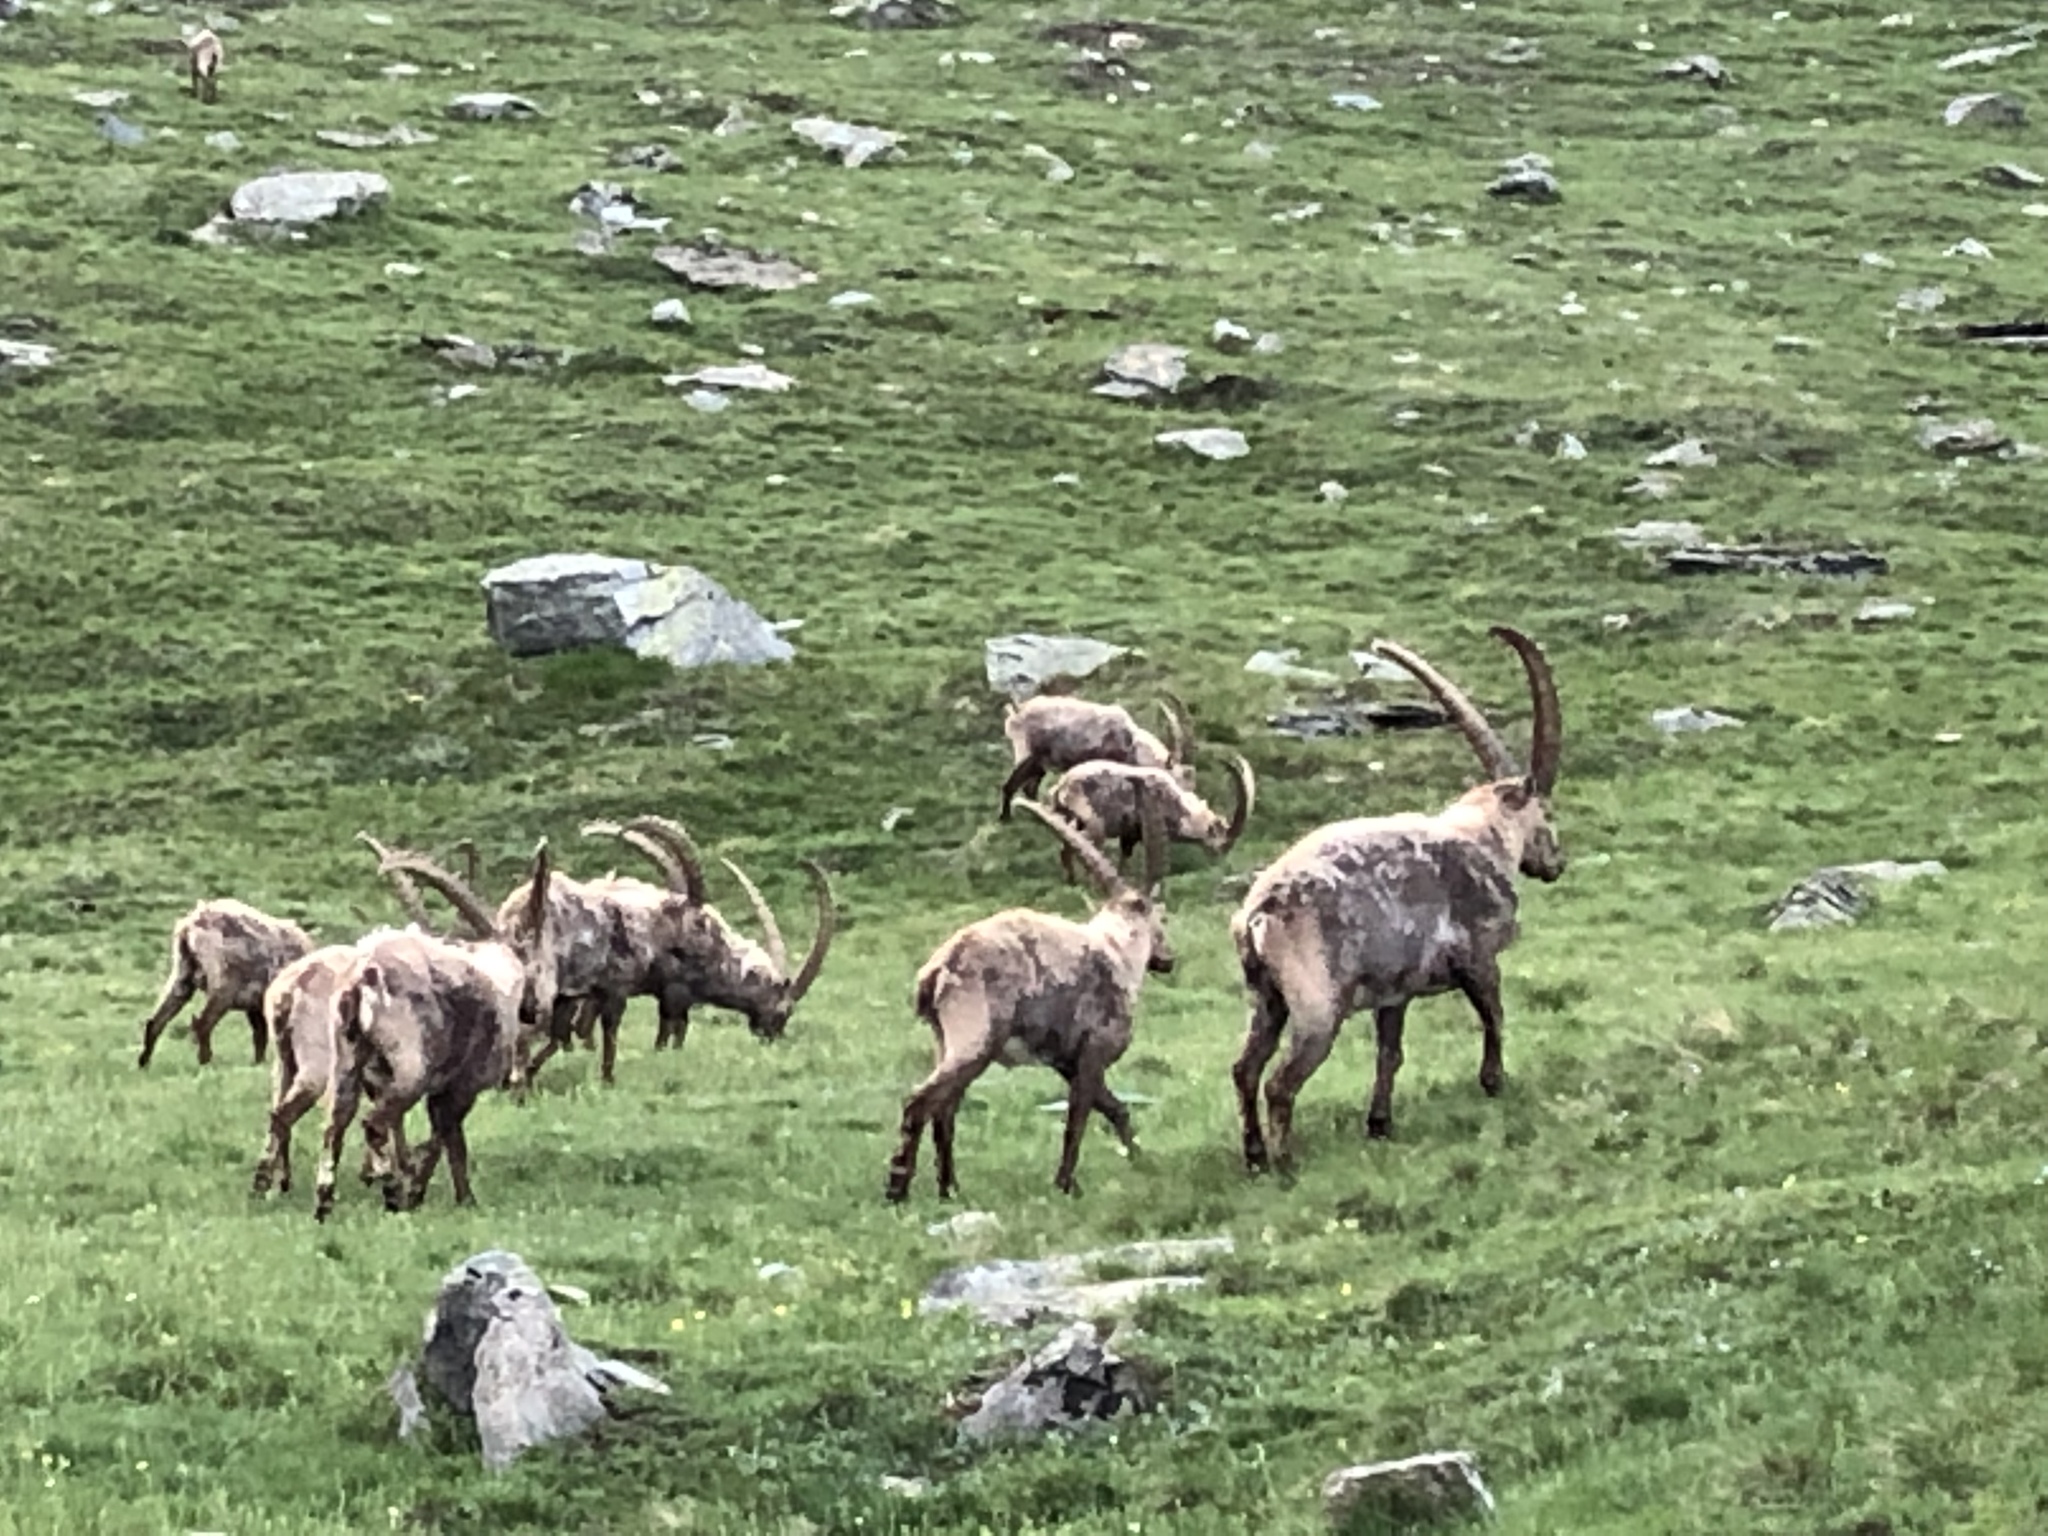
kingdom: Animalia
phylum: Chordata
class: Mammalia
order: Artiodactyla
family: Bovidae
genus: Capra
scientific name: Capra ibex
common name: Alpine ibex
